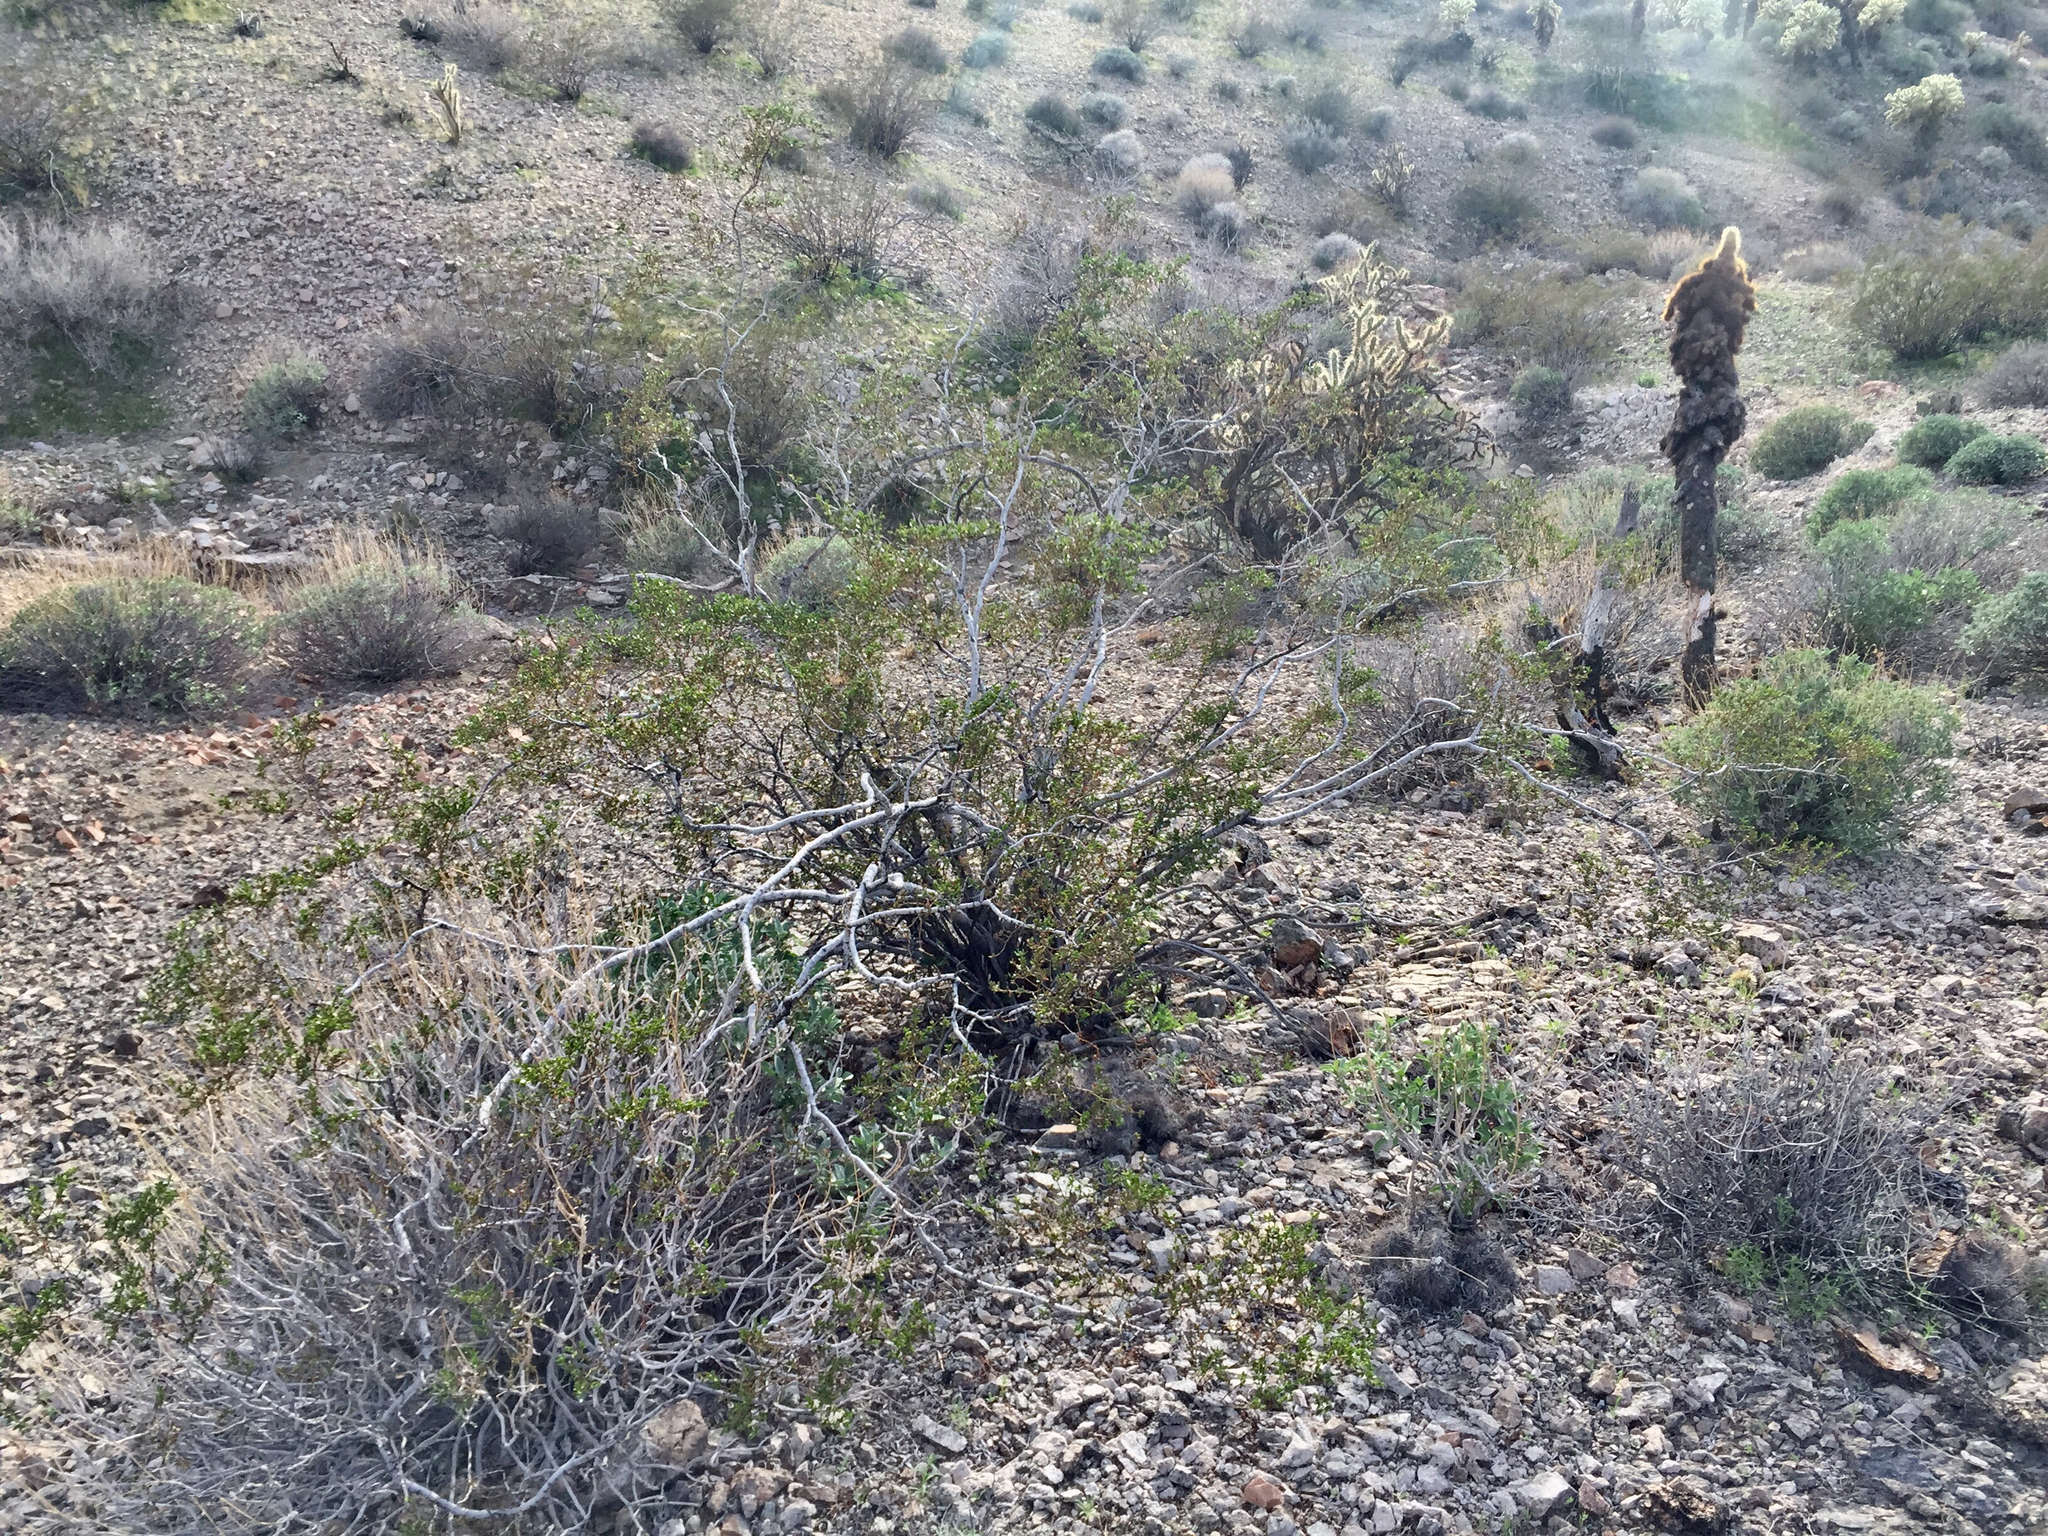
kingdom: Plantae
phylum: Tracheophyta
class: Magnoliopsida
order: Zygophyllales
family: Zygophyllaceae
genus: Larrea
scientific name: Larrea tridentata
